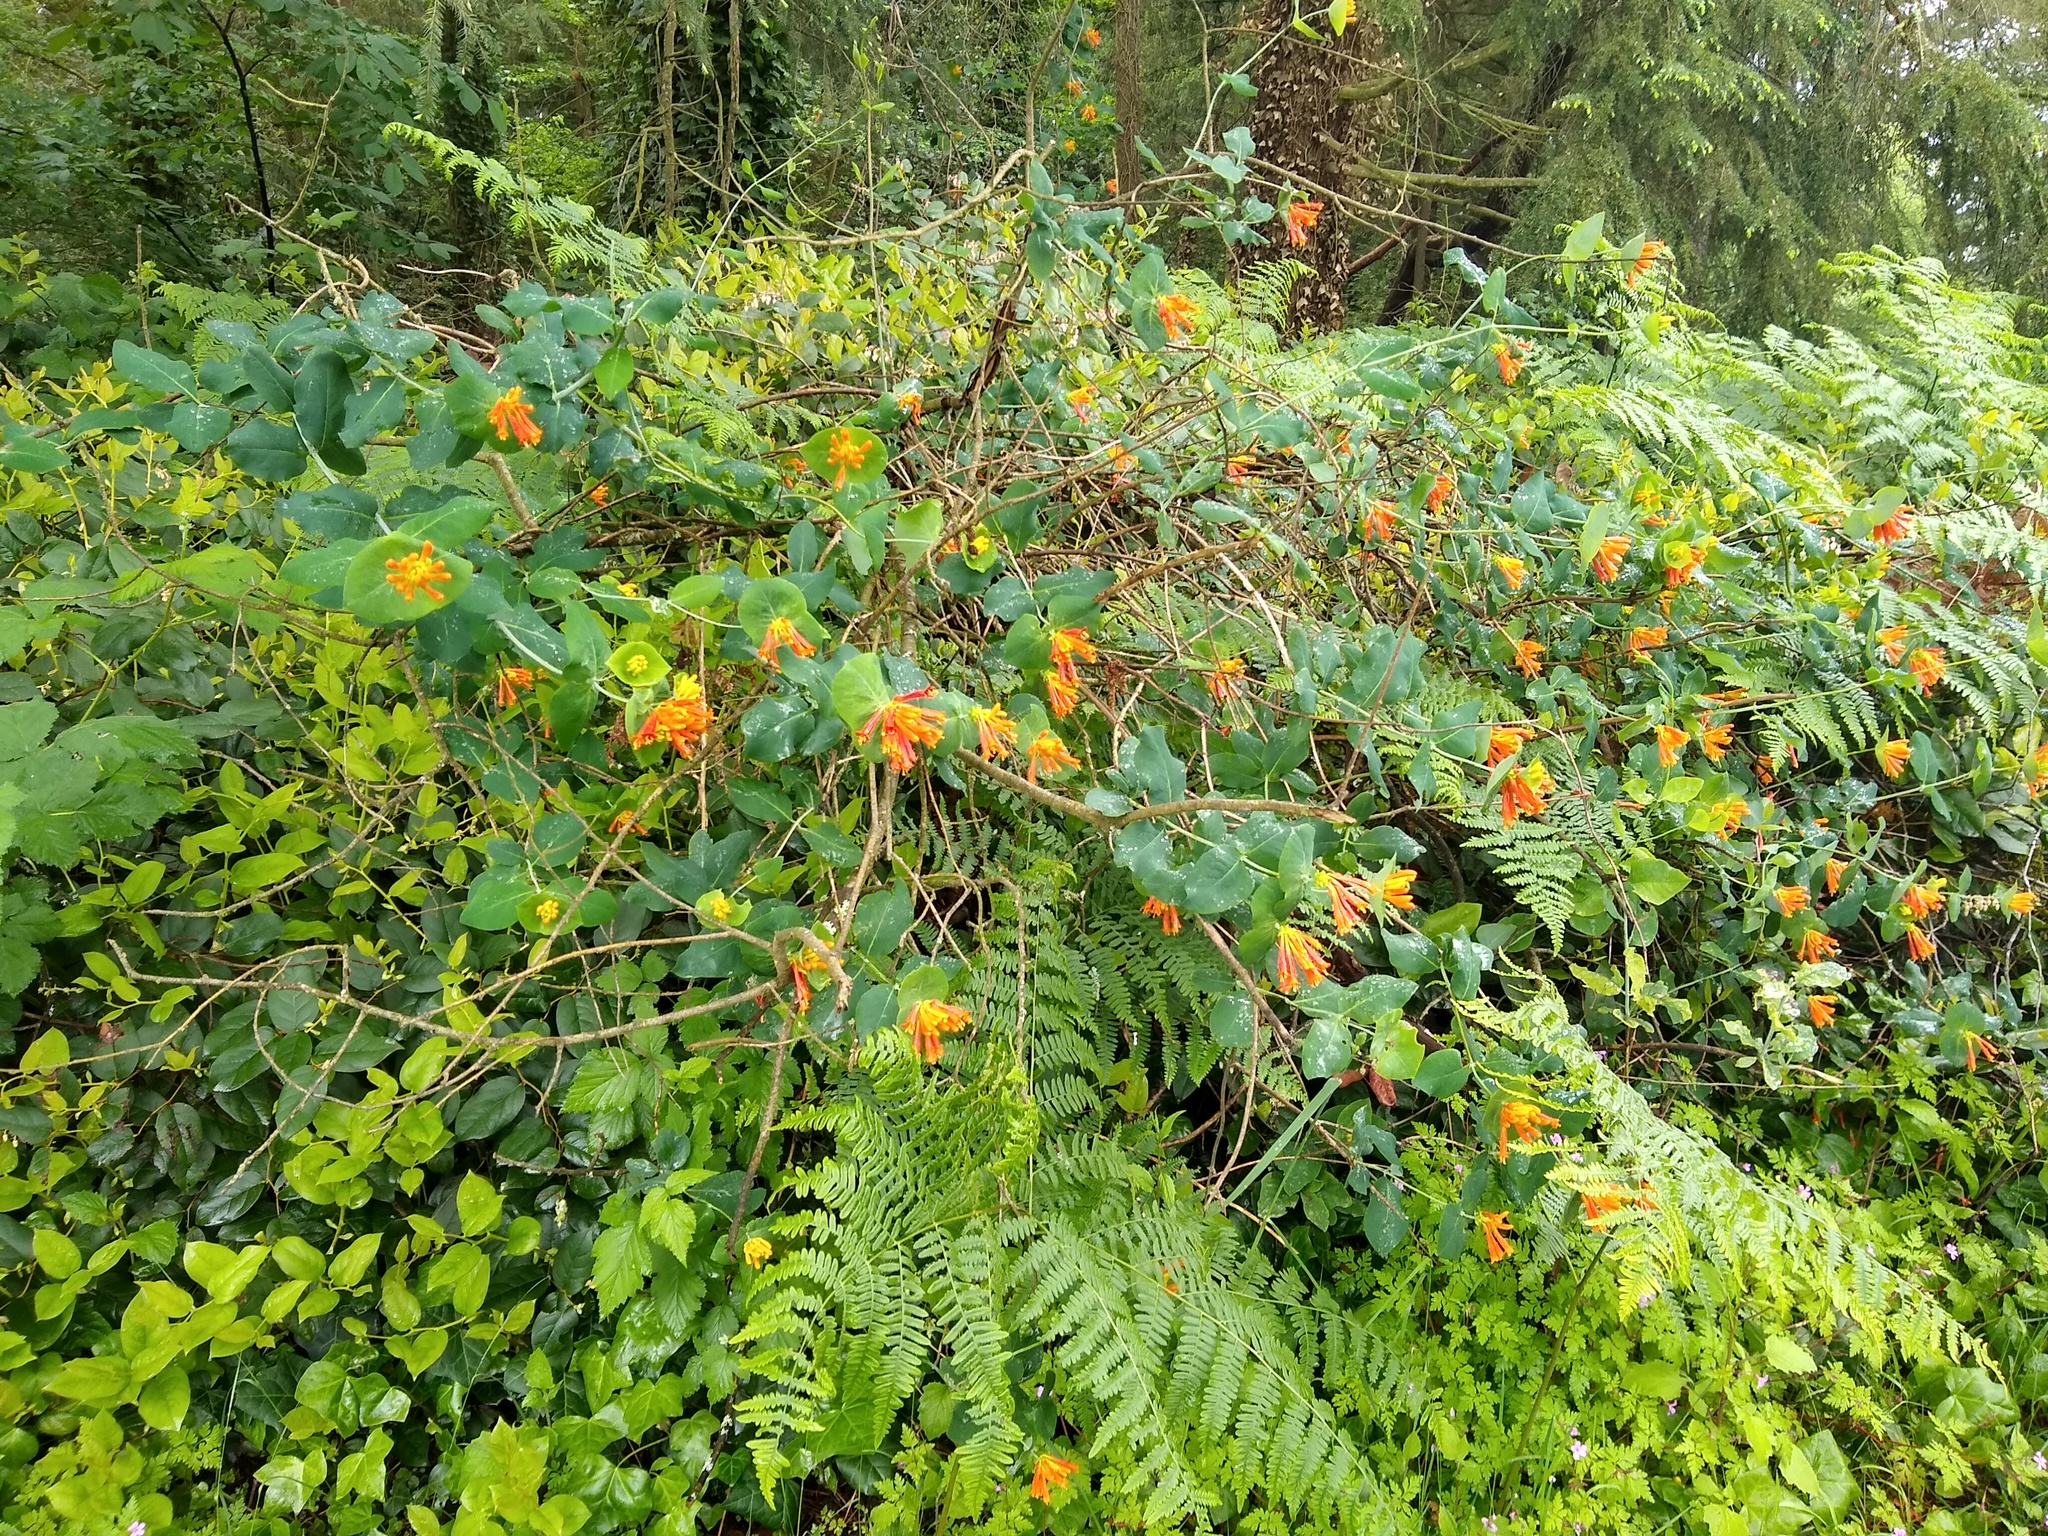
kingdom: Plantae
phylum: Tracheophyta
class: Magnoliopsida
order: Dipsacales
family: Caprifoliaceae
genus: Lonicera
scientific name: Lonicera ciliosa
